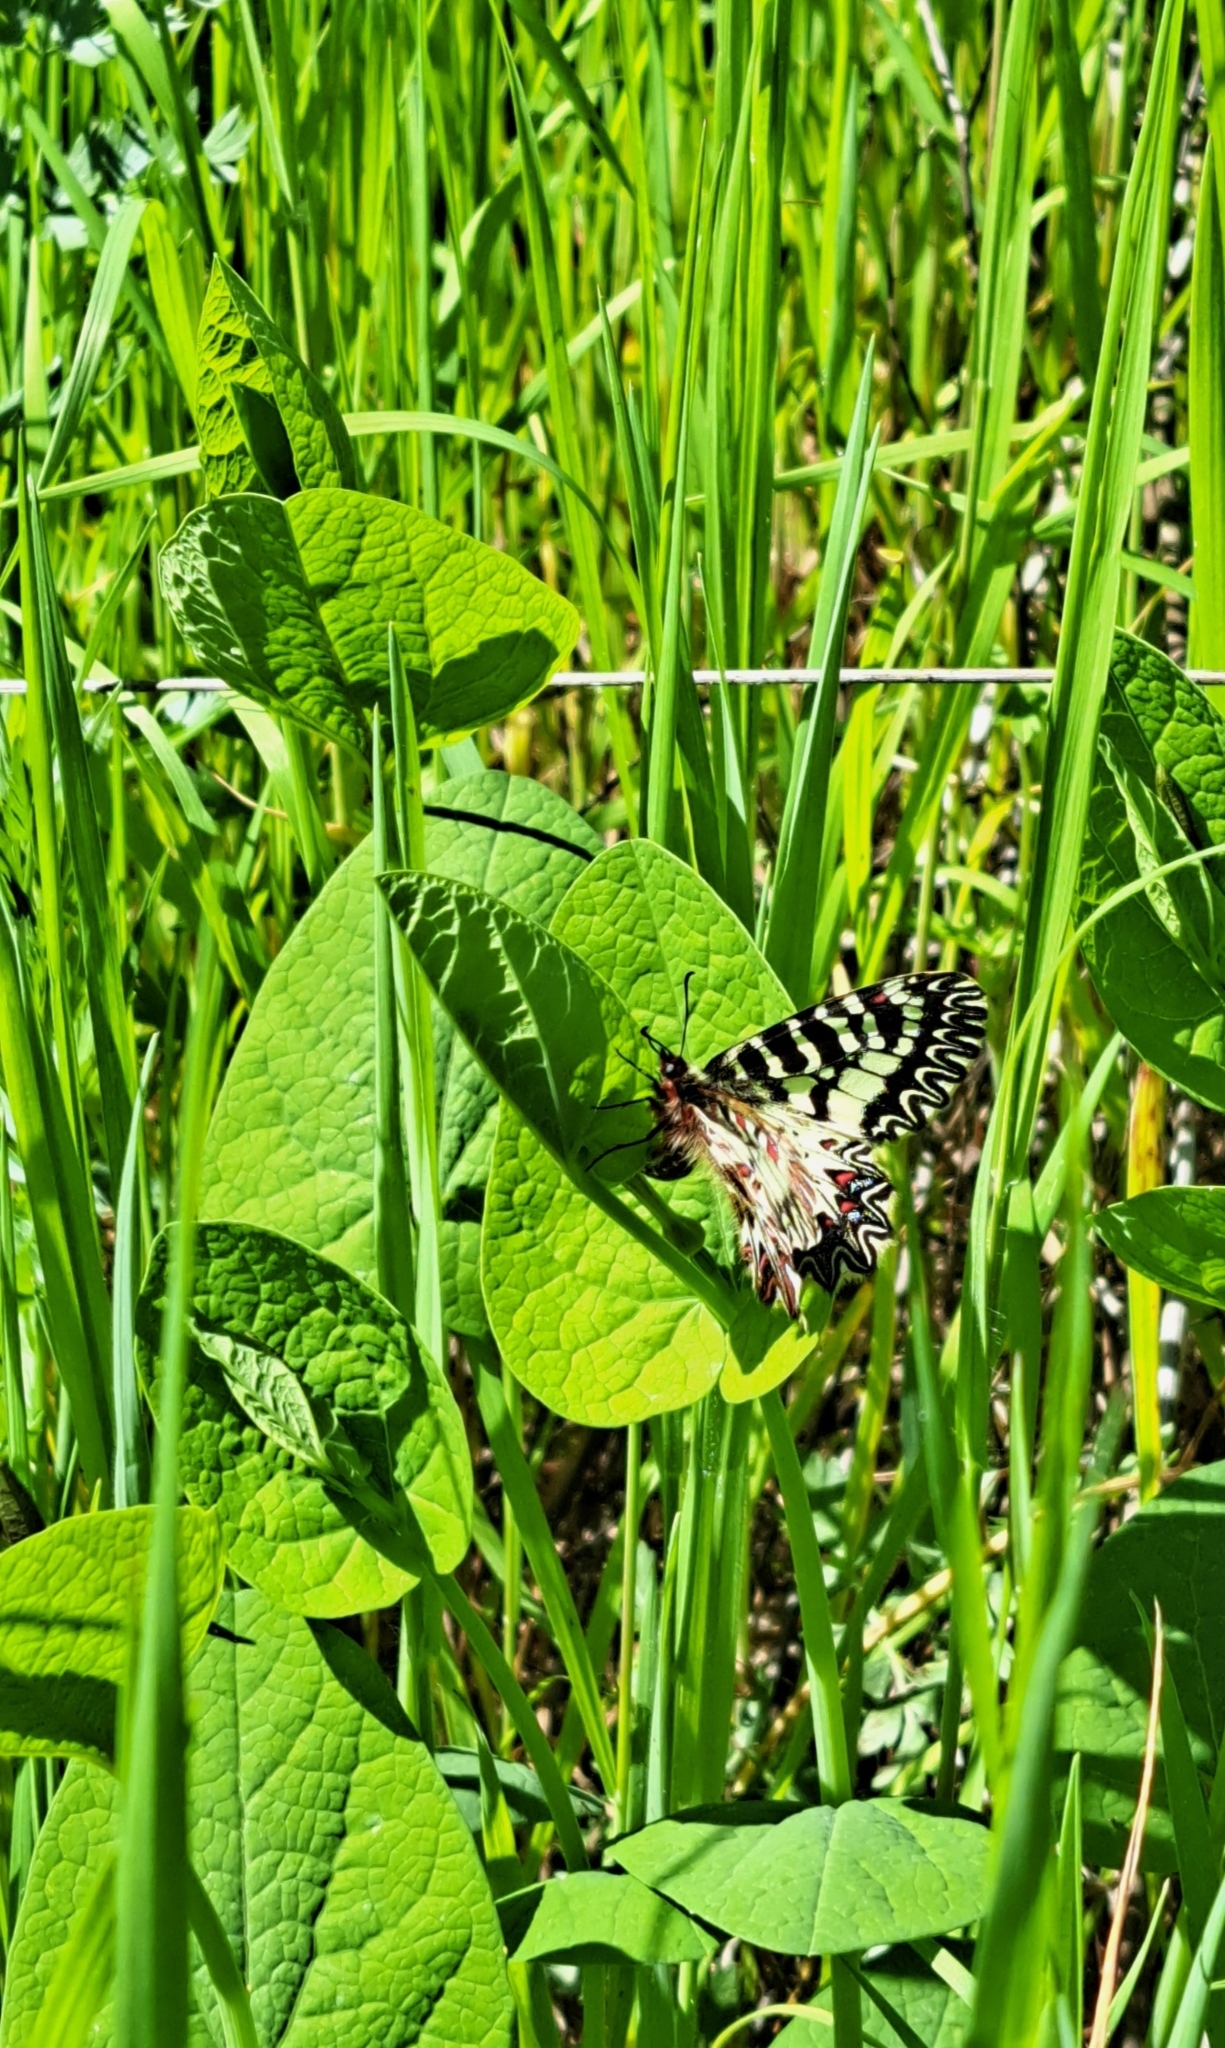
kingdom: Animalia
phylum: Arthropoda
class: Insecta
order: Lepidoptera
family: Papilionidae
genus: Zerynthia
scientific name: Zerynthia cassandra
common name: Italian festoon
